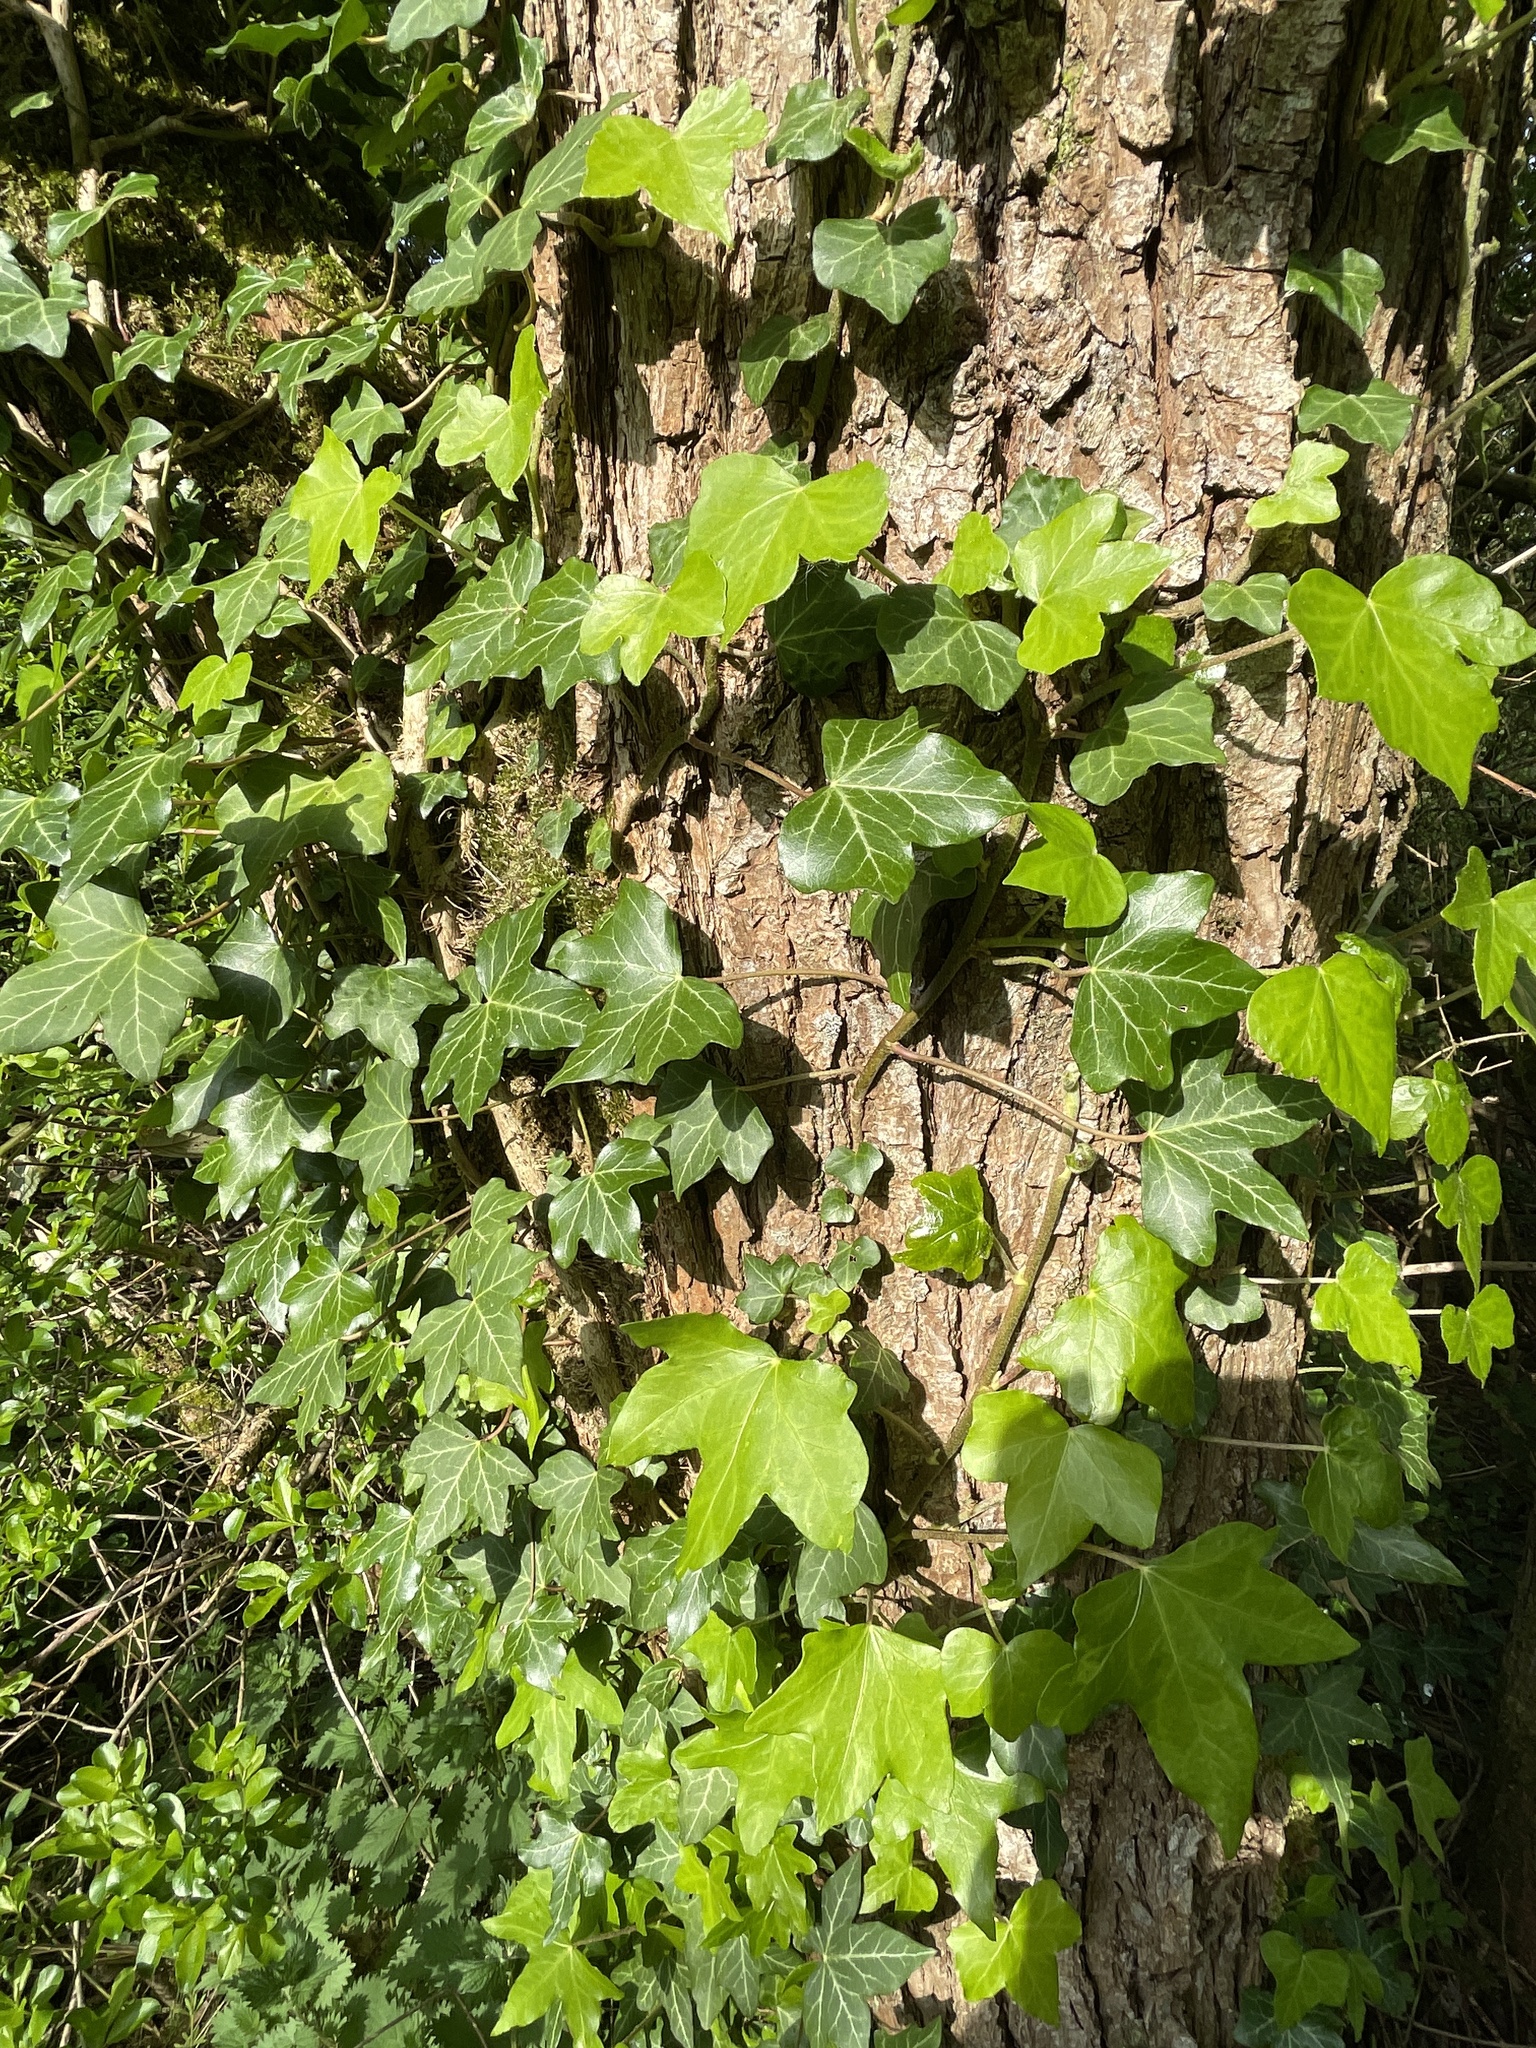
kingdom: Plantae
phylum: Tracheophyta
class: Magnoliopsida
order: Apiales
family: Araliaceae
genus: Hedera
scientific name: Hedera helix
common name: Ivy
